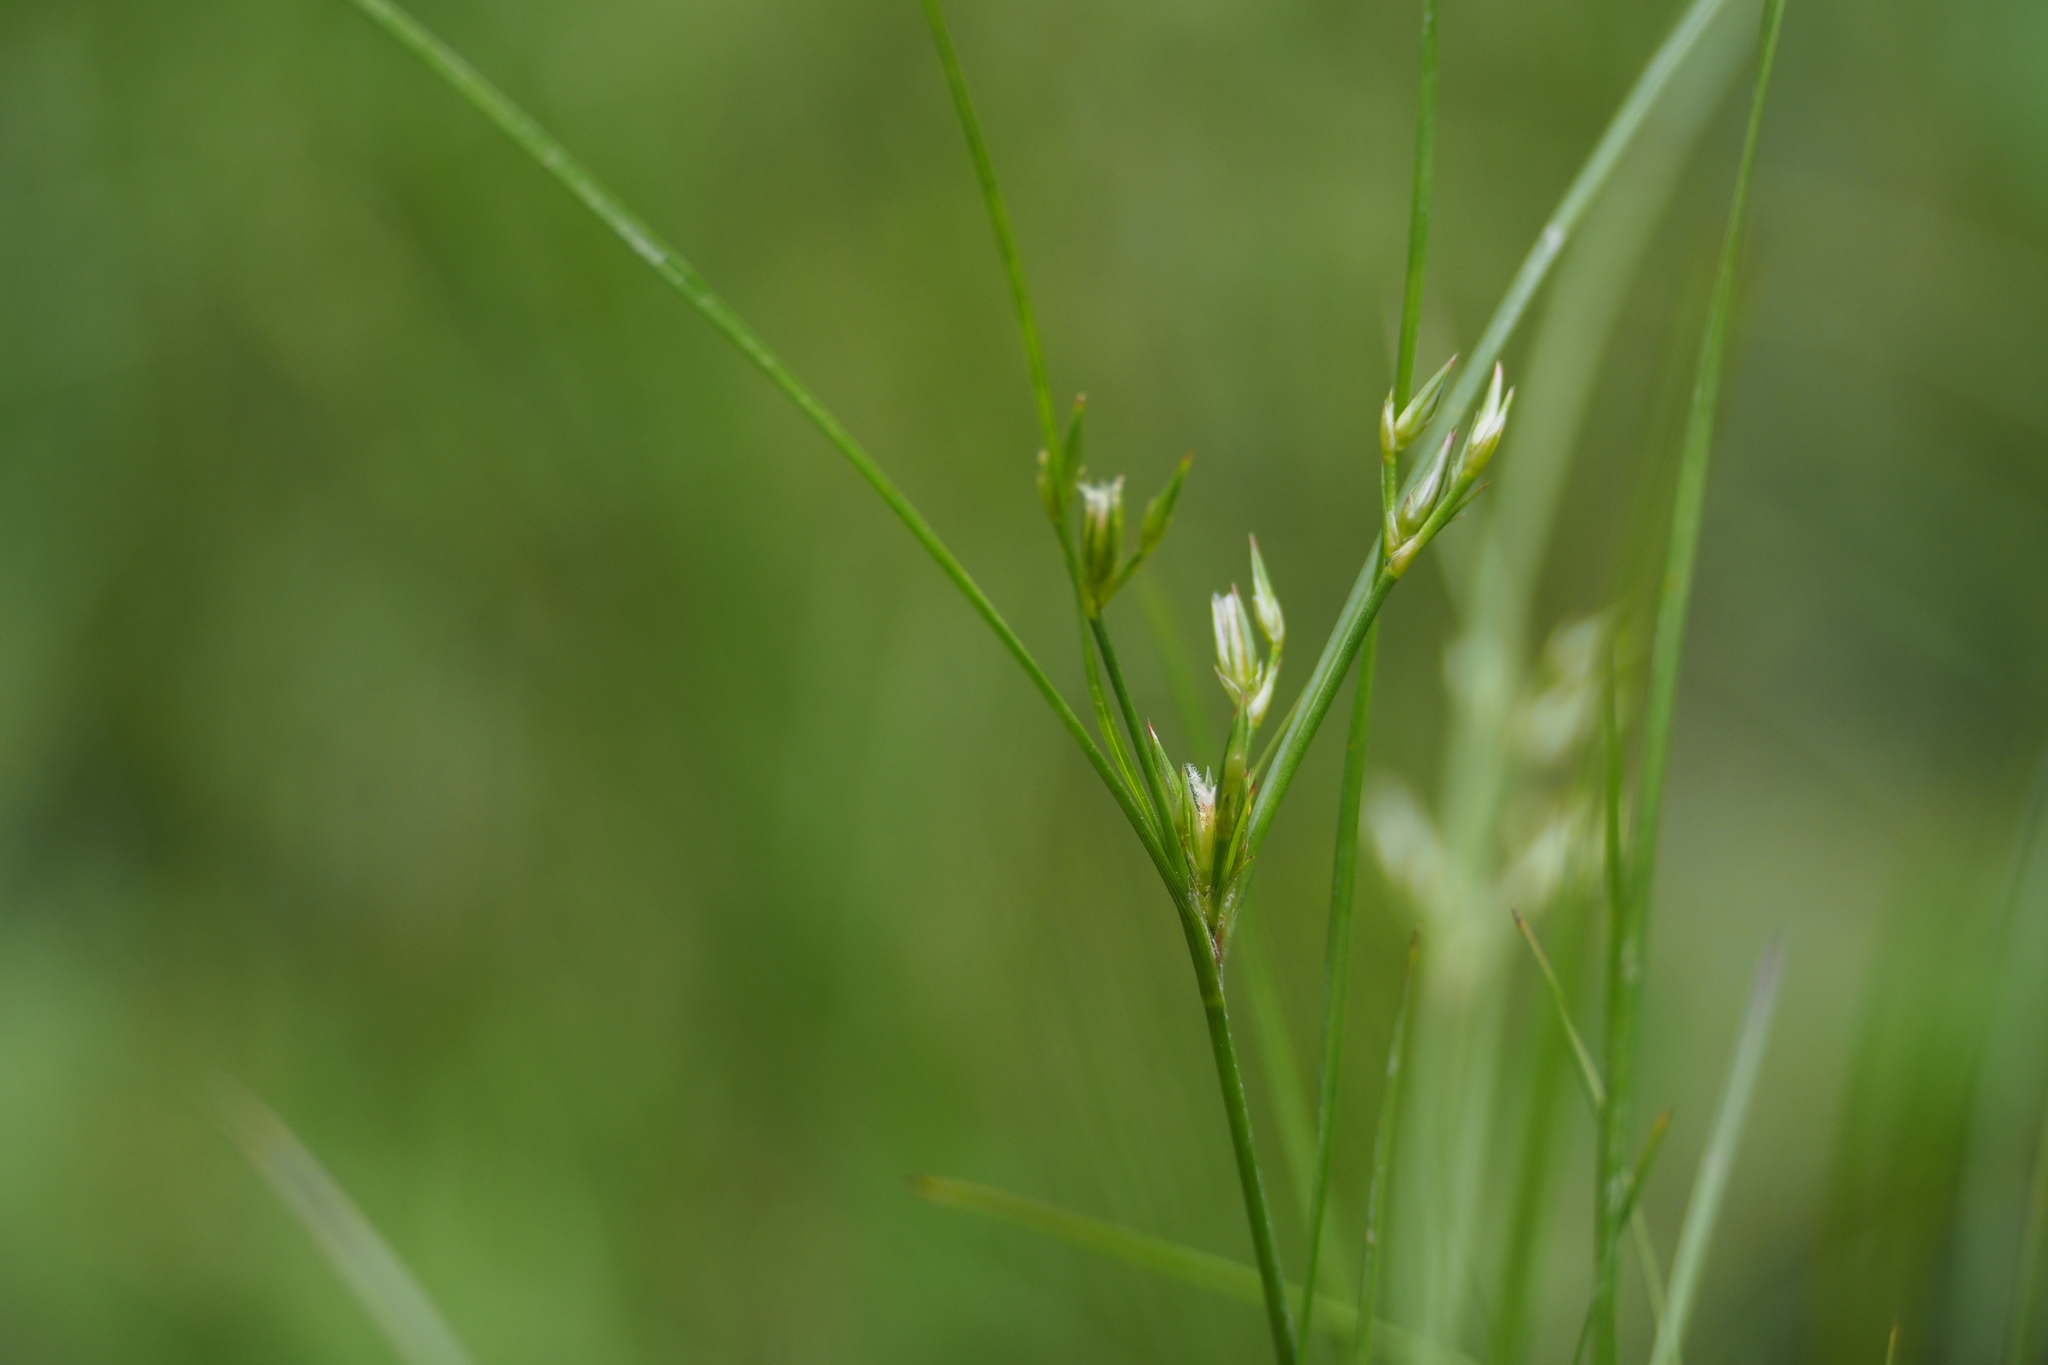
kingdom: Plantae
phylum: Tracheophyta
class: Liliopsida
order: Poales
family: Juncaceae
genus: Juncus
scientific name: Juncus tenuis
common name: Slender rush
